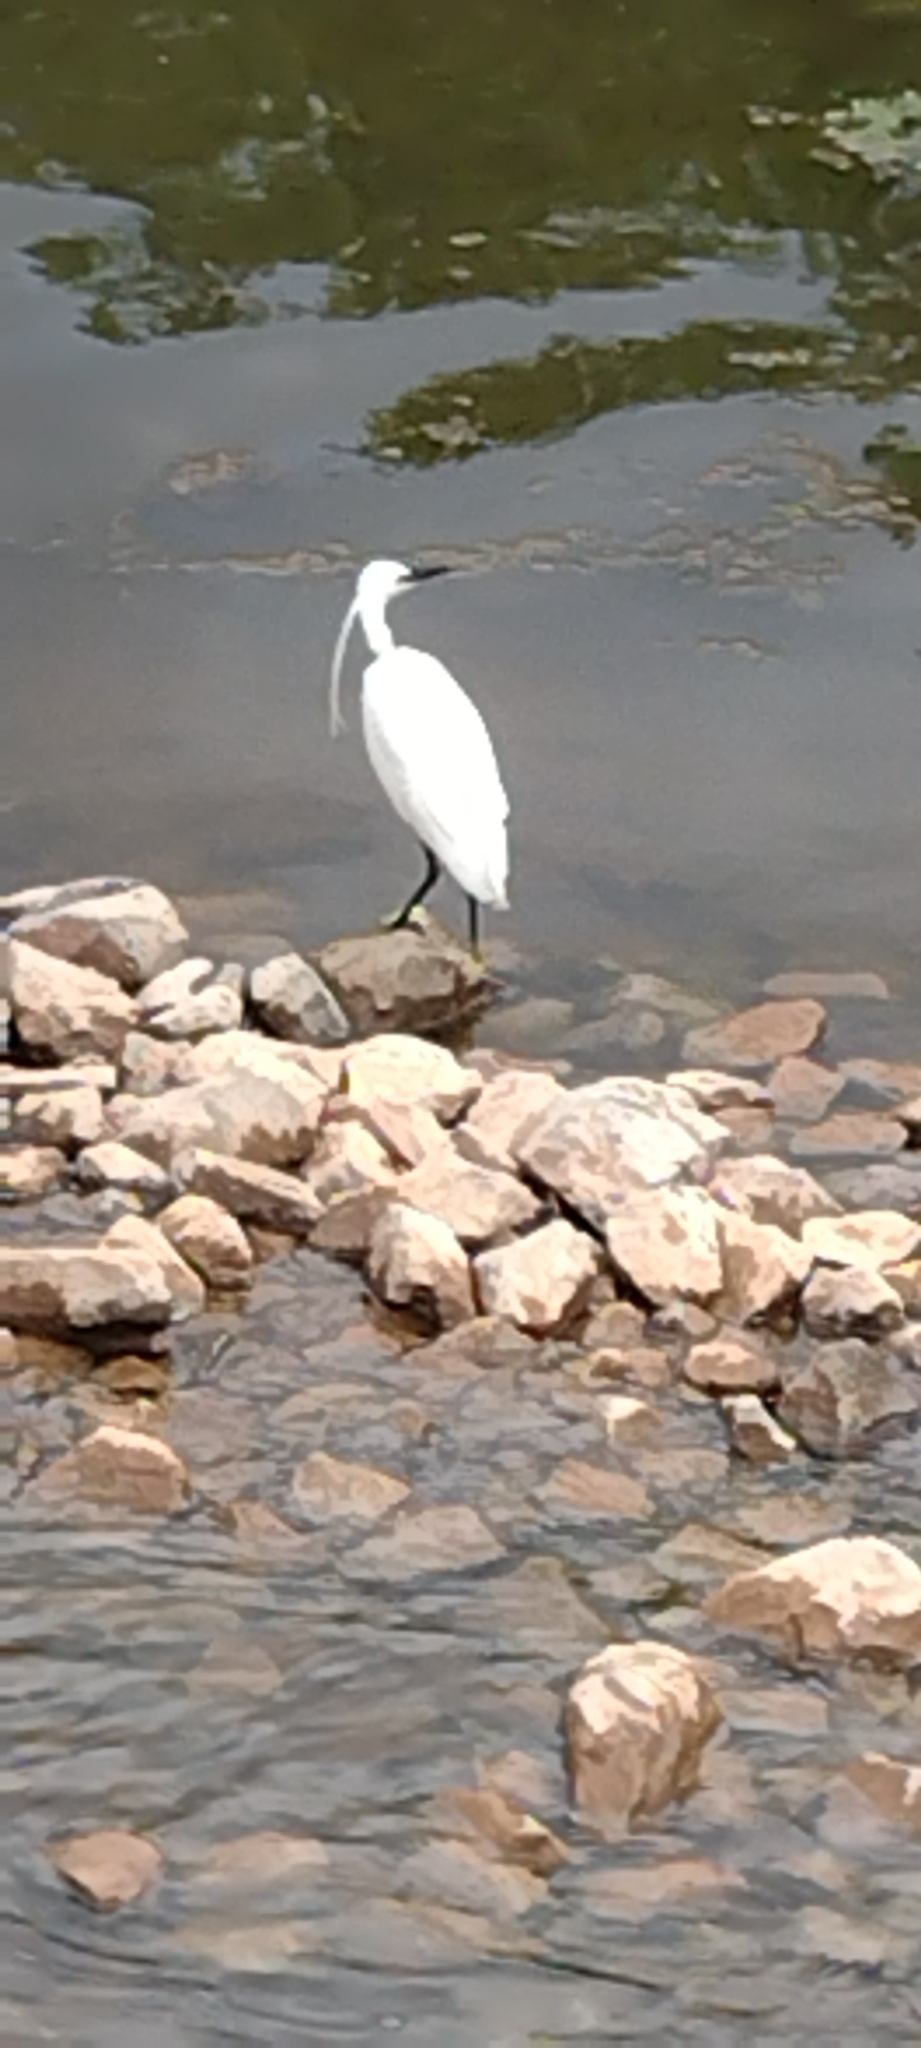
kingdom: Animalia
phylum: Chordata
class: Aves
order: Pelecaniformes
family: Ardeidae
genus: Egretta
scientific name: Egretta garzetta
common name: Little egret
